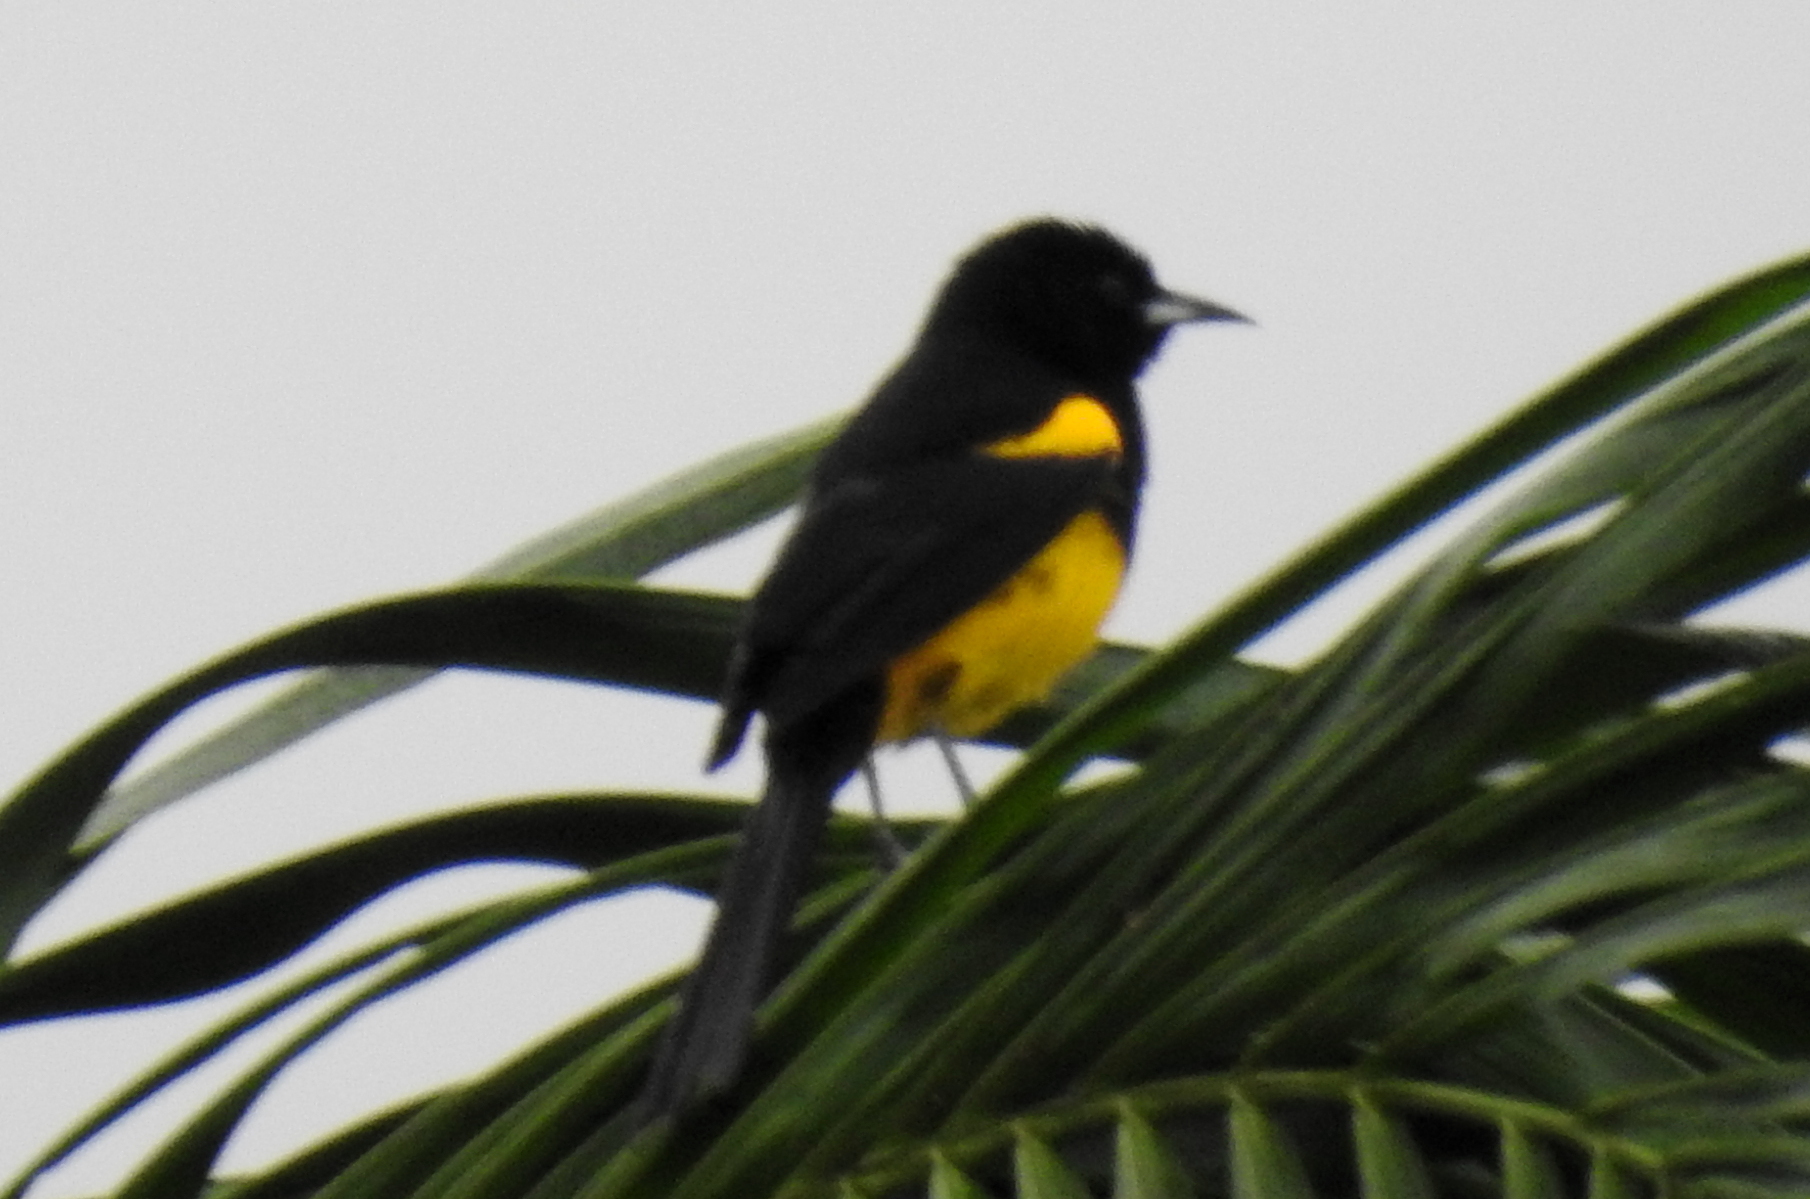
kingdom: Animalia
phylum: Chordata
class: Aves
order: Passeriformes
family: Icteridae
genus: Icterus
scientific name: Icterus prosthemelas
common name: Black-cowled oriole
